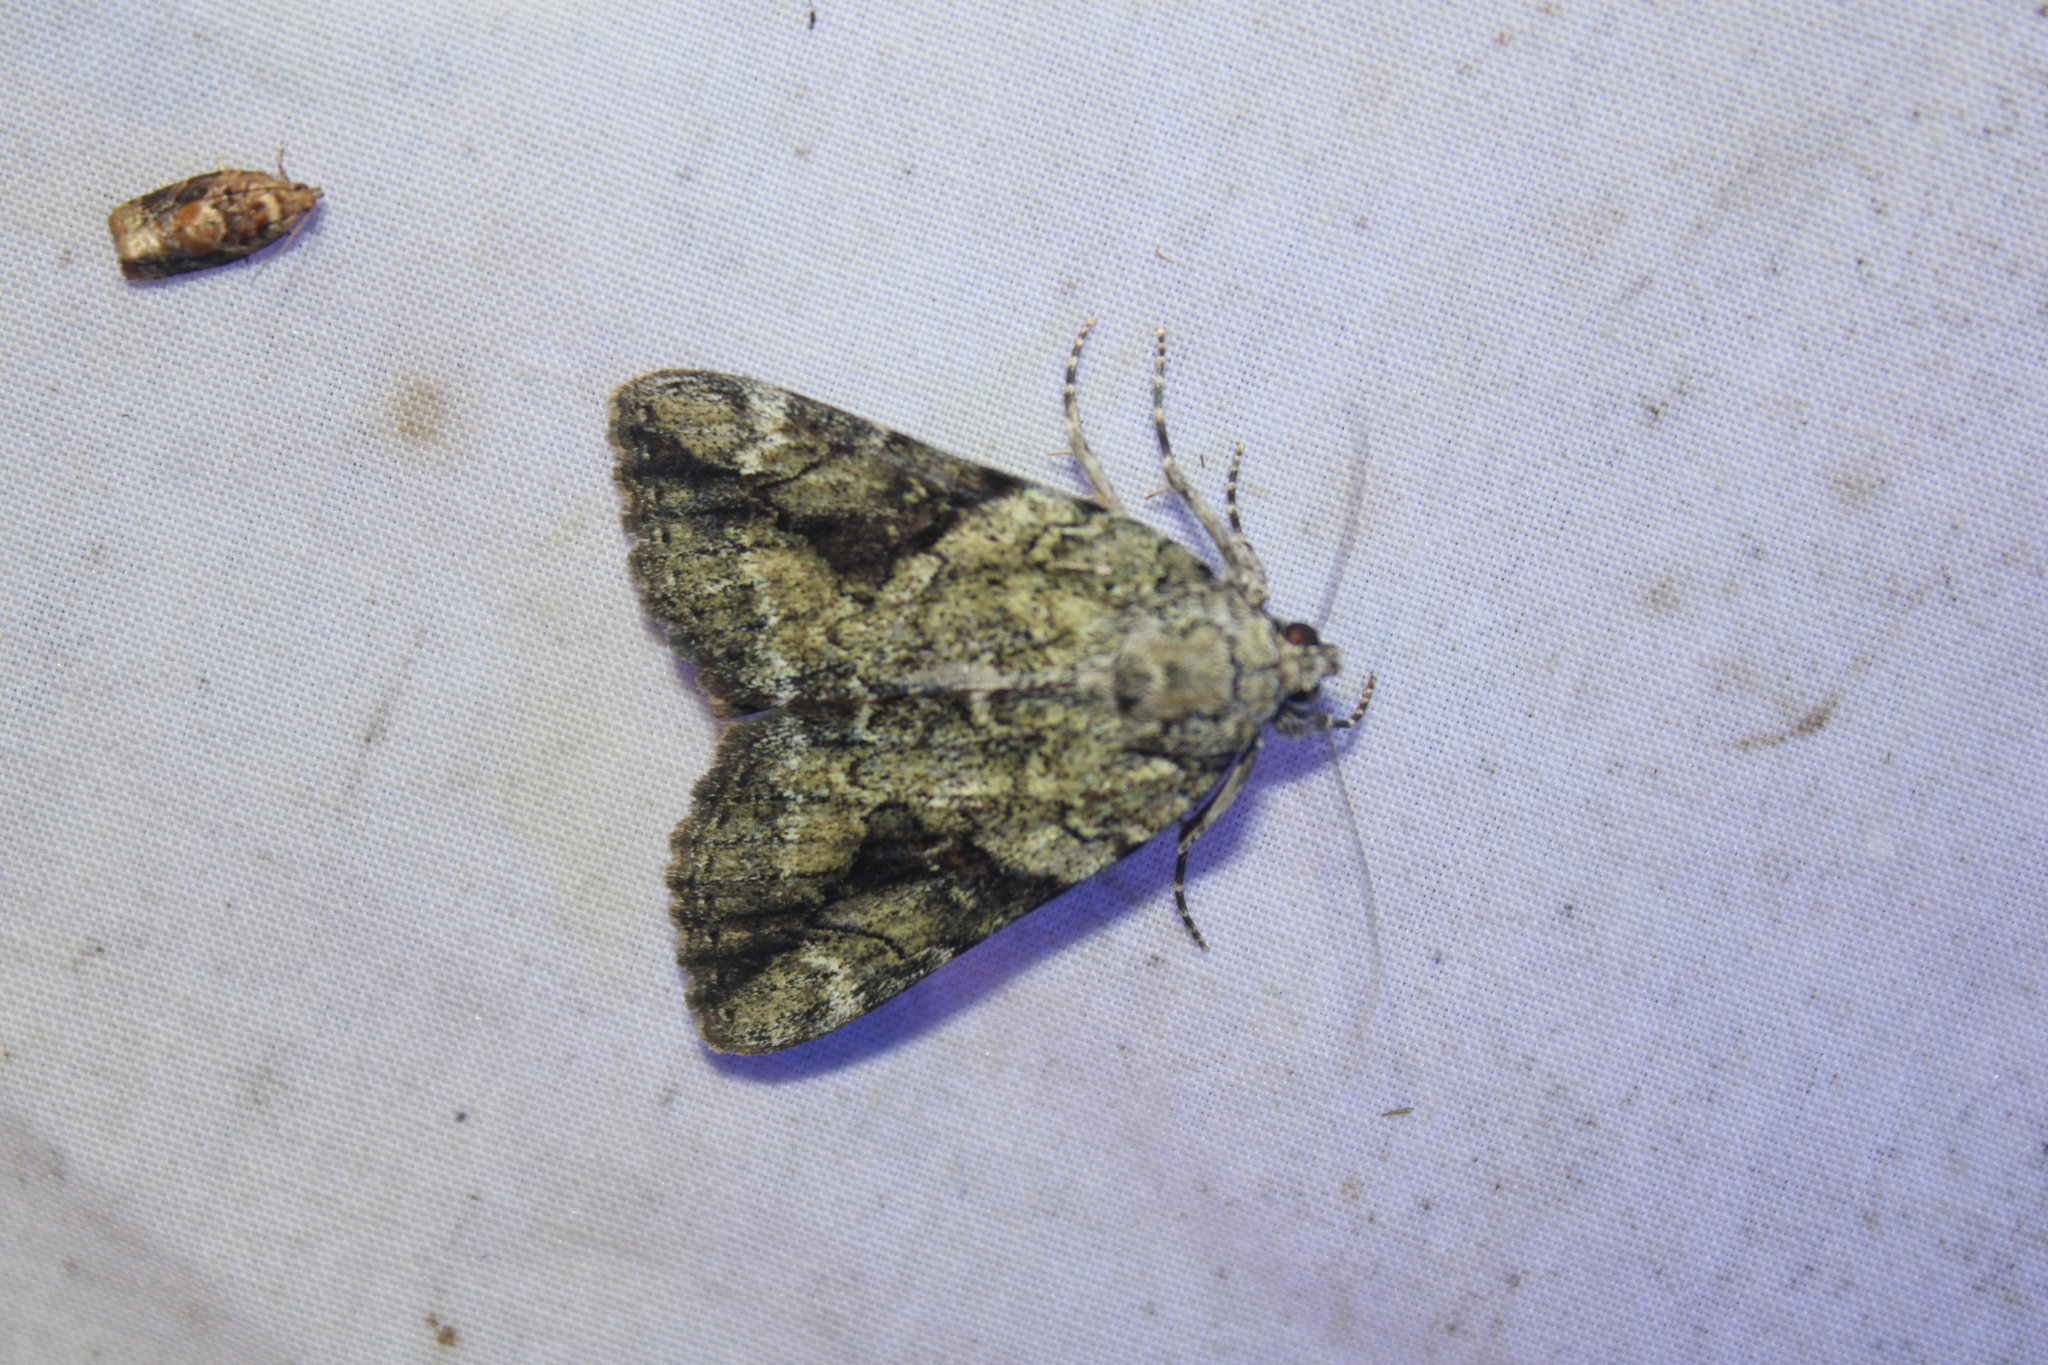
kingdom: Animalia
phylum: Arthropoda
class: Insecta
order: Lepidoptera
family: Erebidae
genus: Catocala
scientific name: Catocala micronympha
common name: Little nymph underwing
